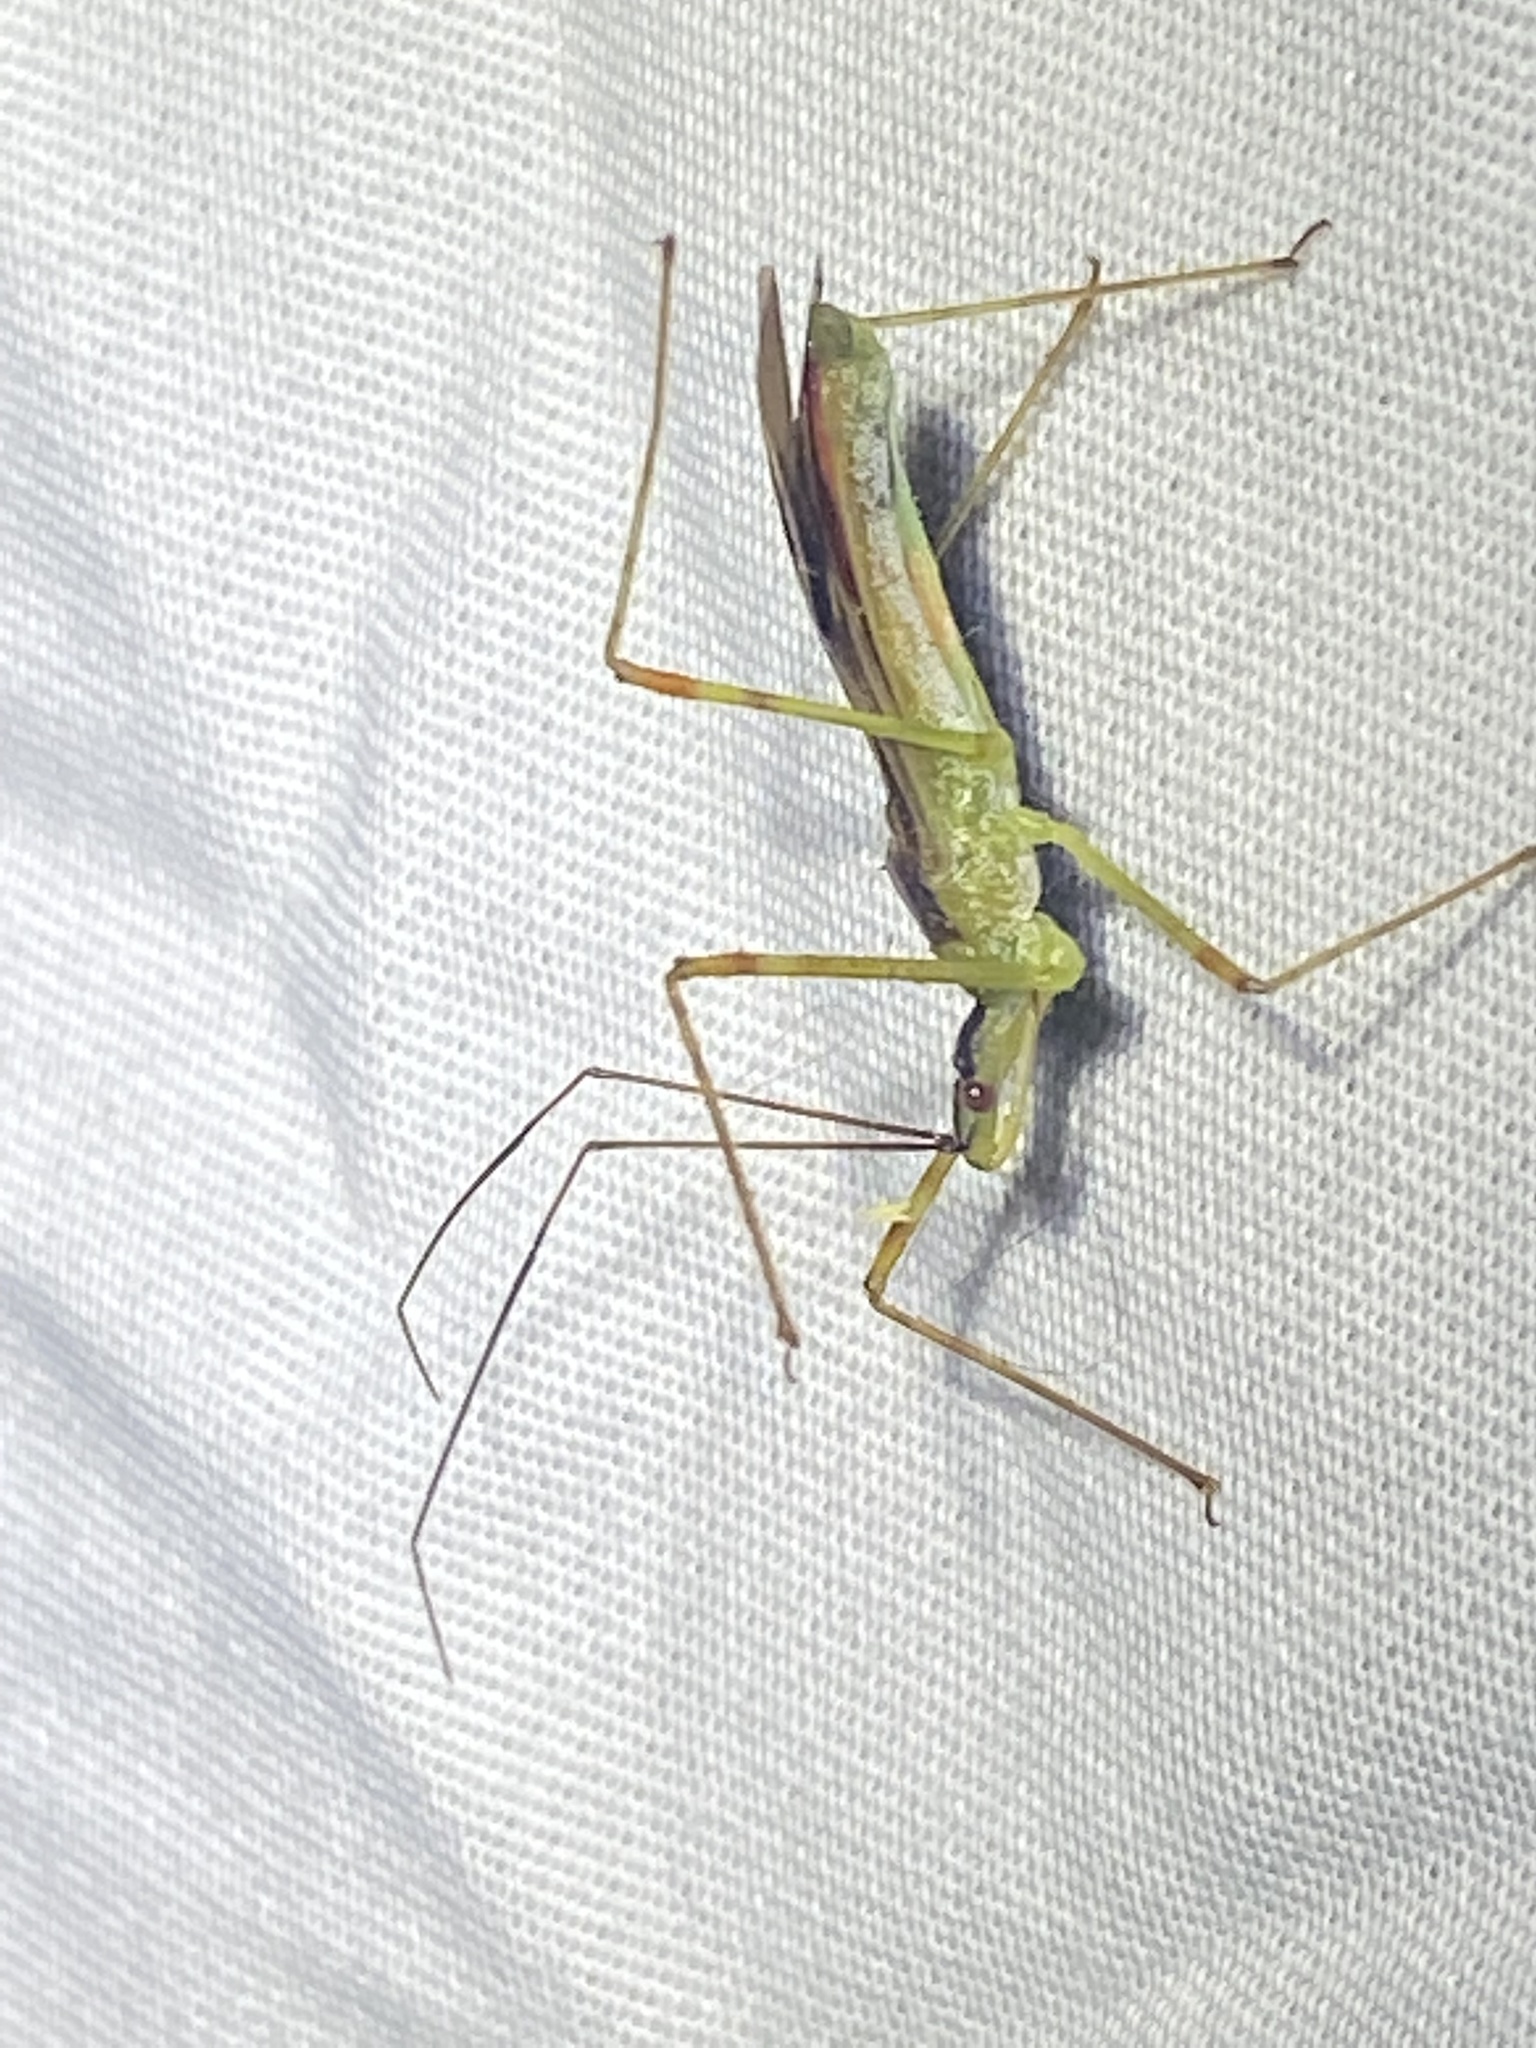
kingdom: Animalia
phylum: Arthropoda
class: Insecta
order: Hemiptera
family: Reduviidae
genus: Zelus
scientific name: Zelus luridus
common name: Pale green assassin bug
